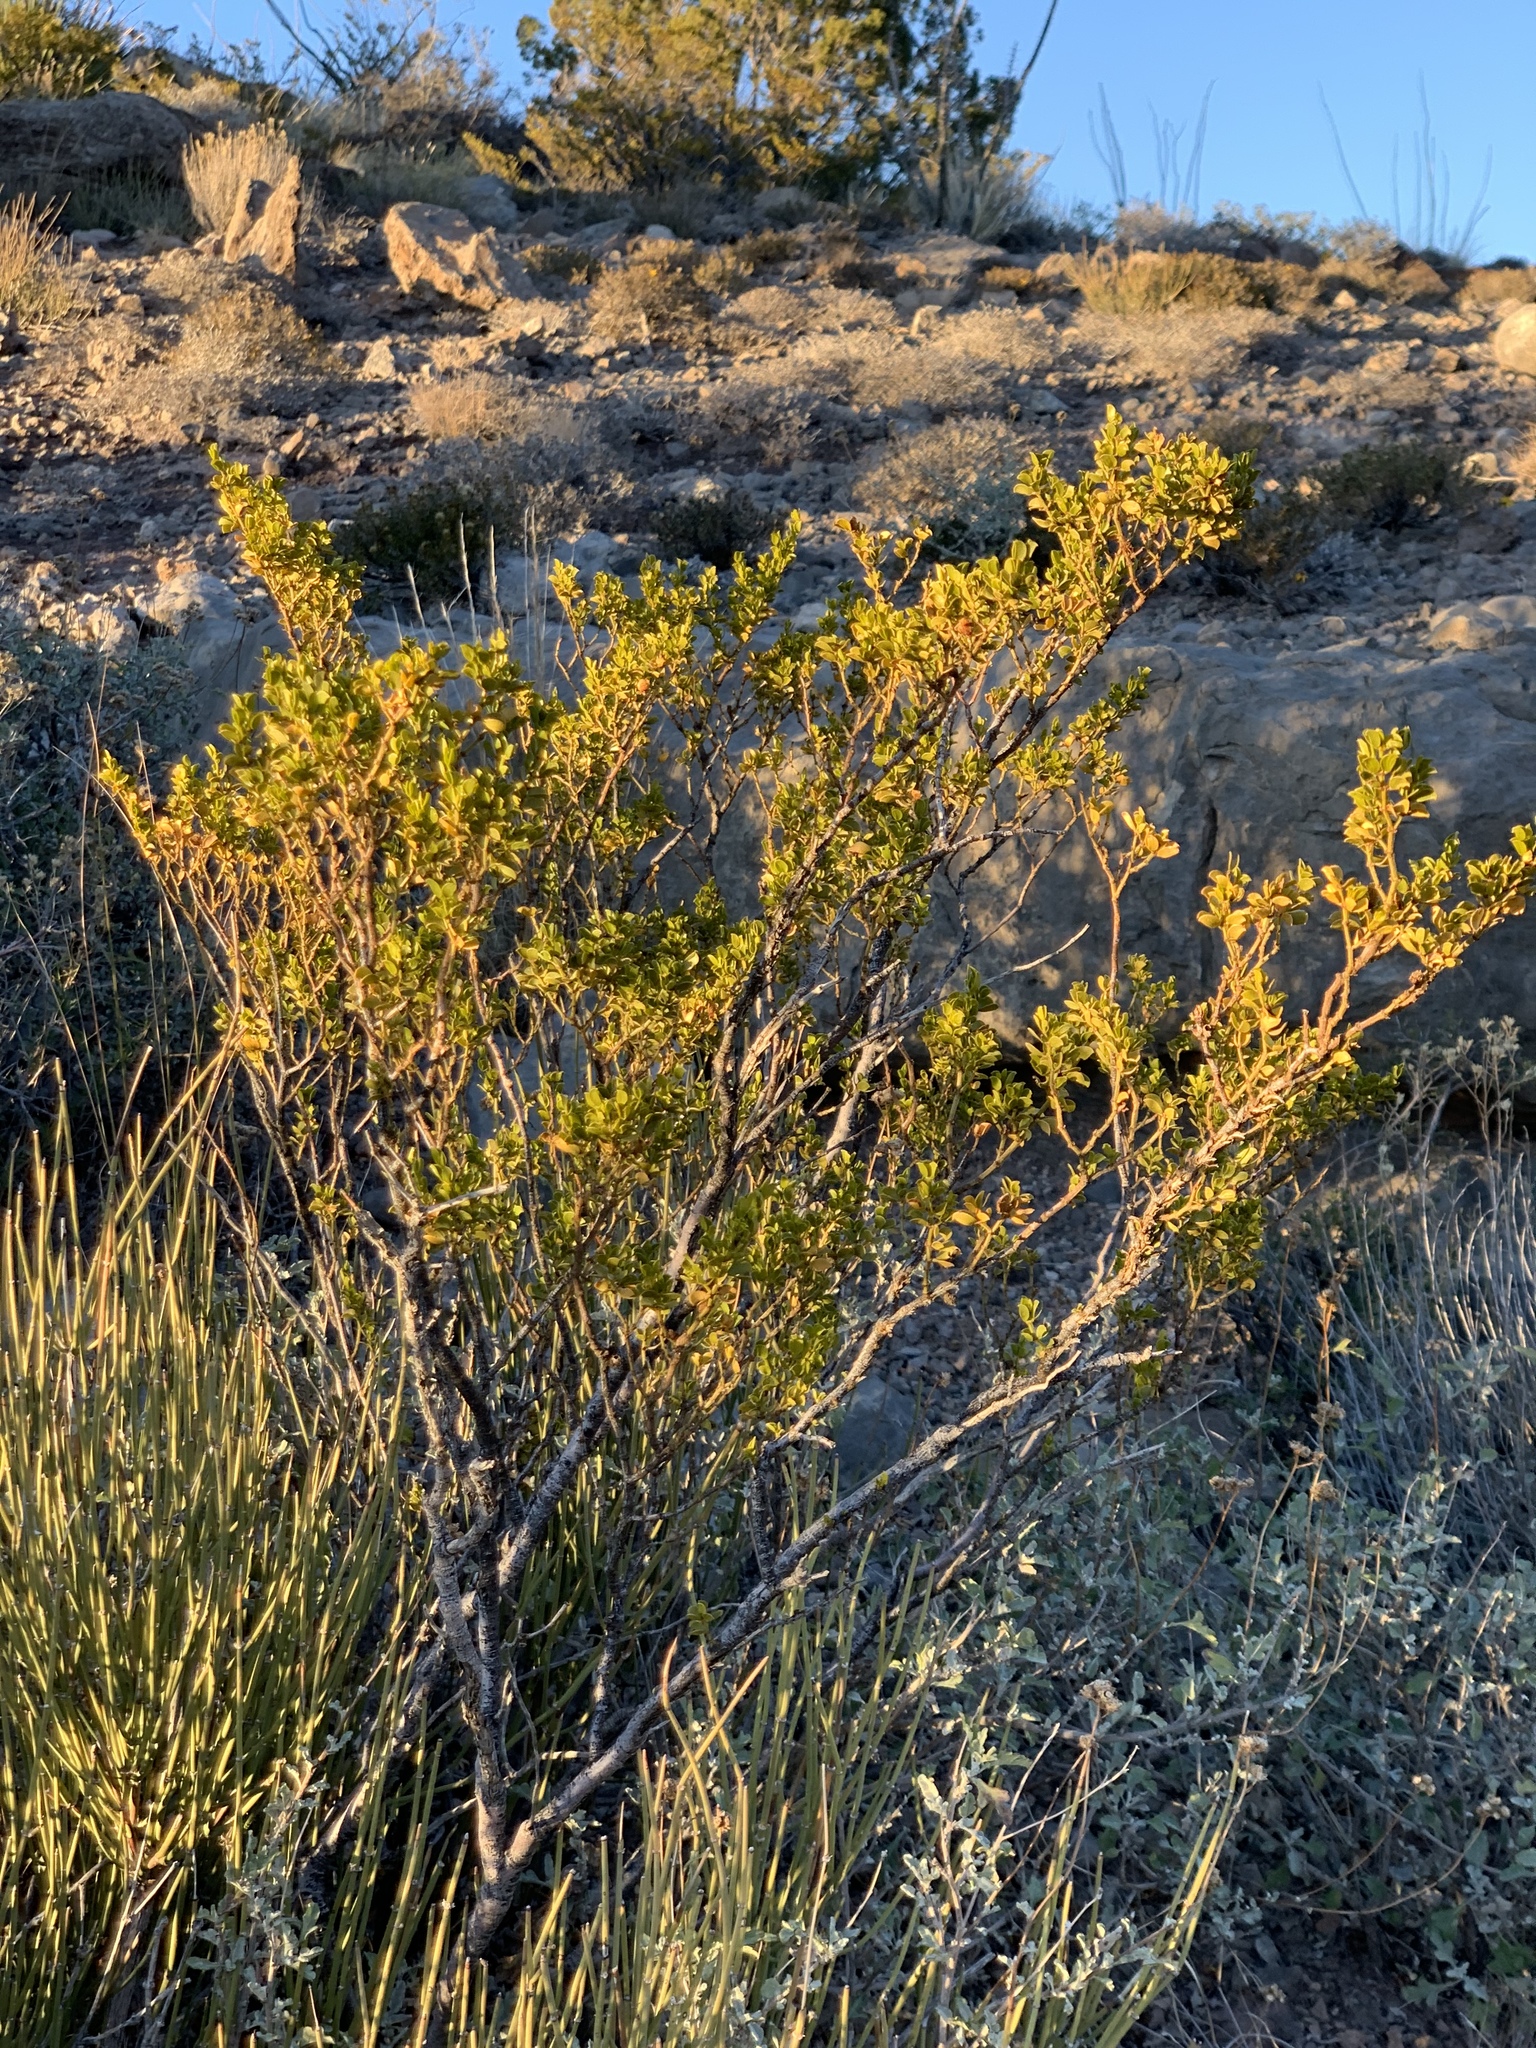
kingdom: Plantae
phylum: Tracheophyta
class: Magnoliopsida
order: Zygophyllales
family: Zygophyllaceae
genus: Larrea
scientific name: Larrea tridentata
